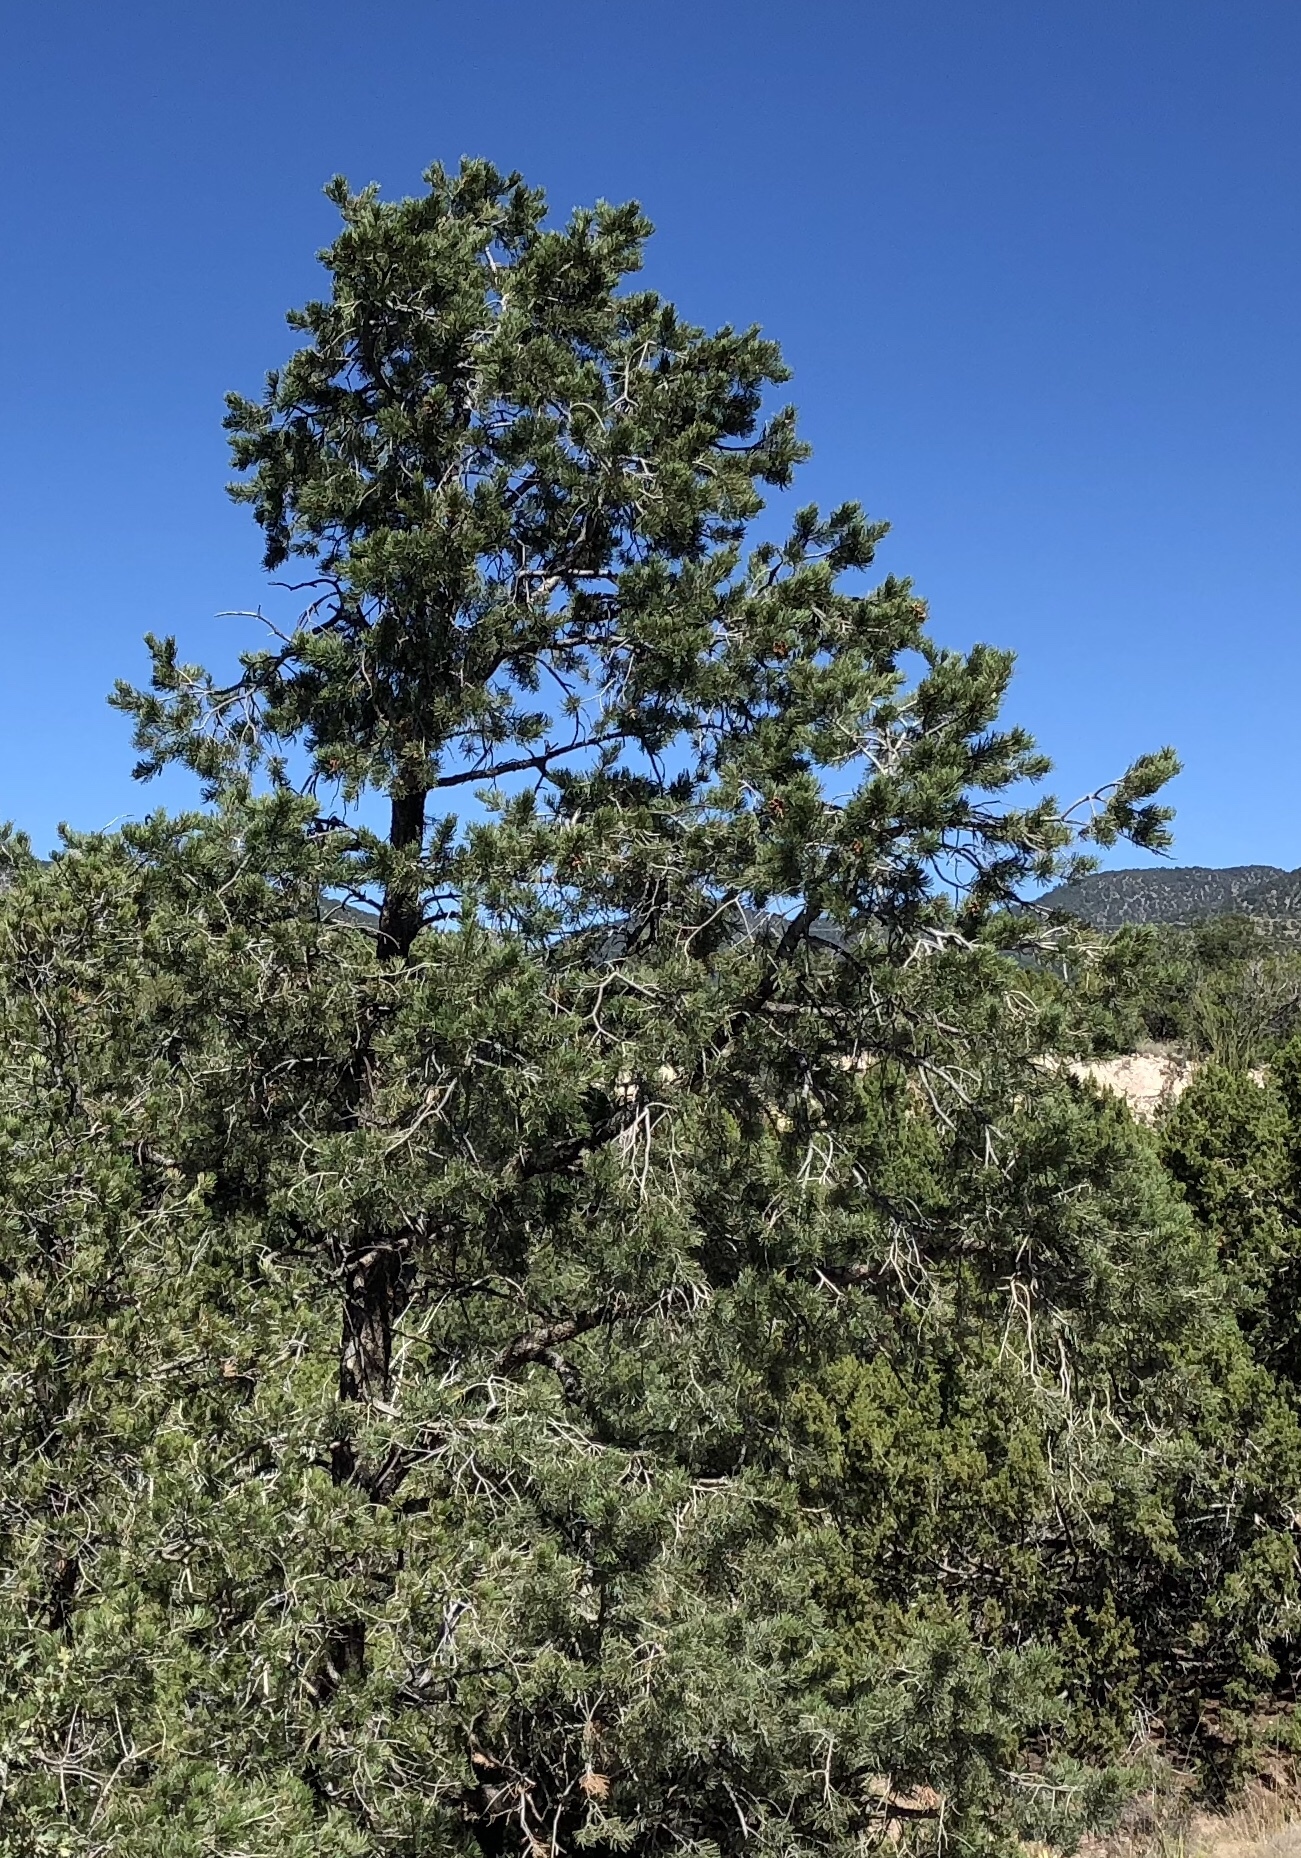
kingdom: Plantae
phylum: Tracheophyta
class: Pinopsida
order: Pinales
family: Pinaceae
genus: Pinus
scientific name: Pinus edulis
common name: Colorado pinyon
